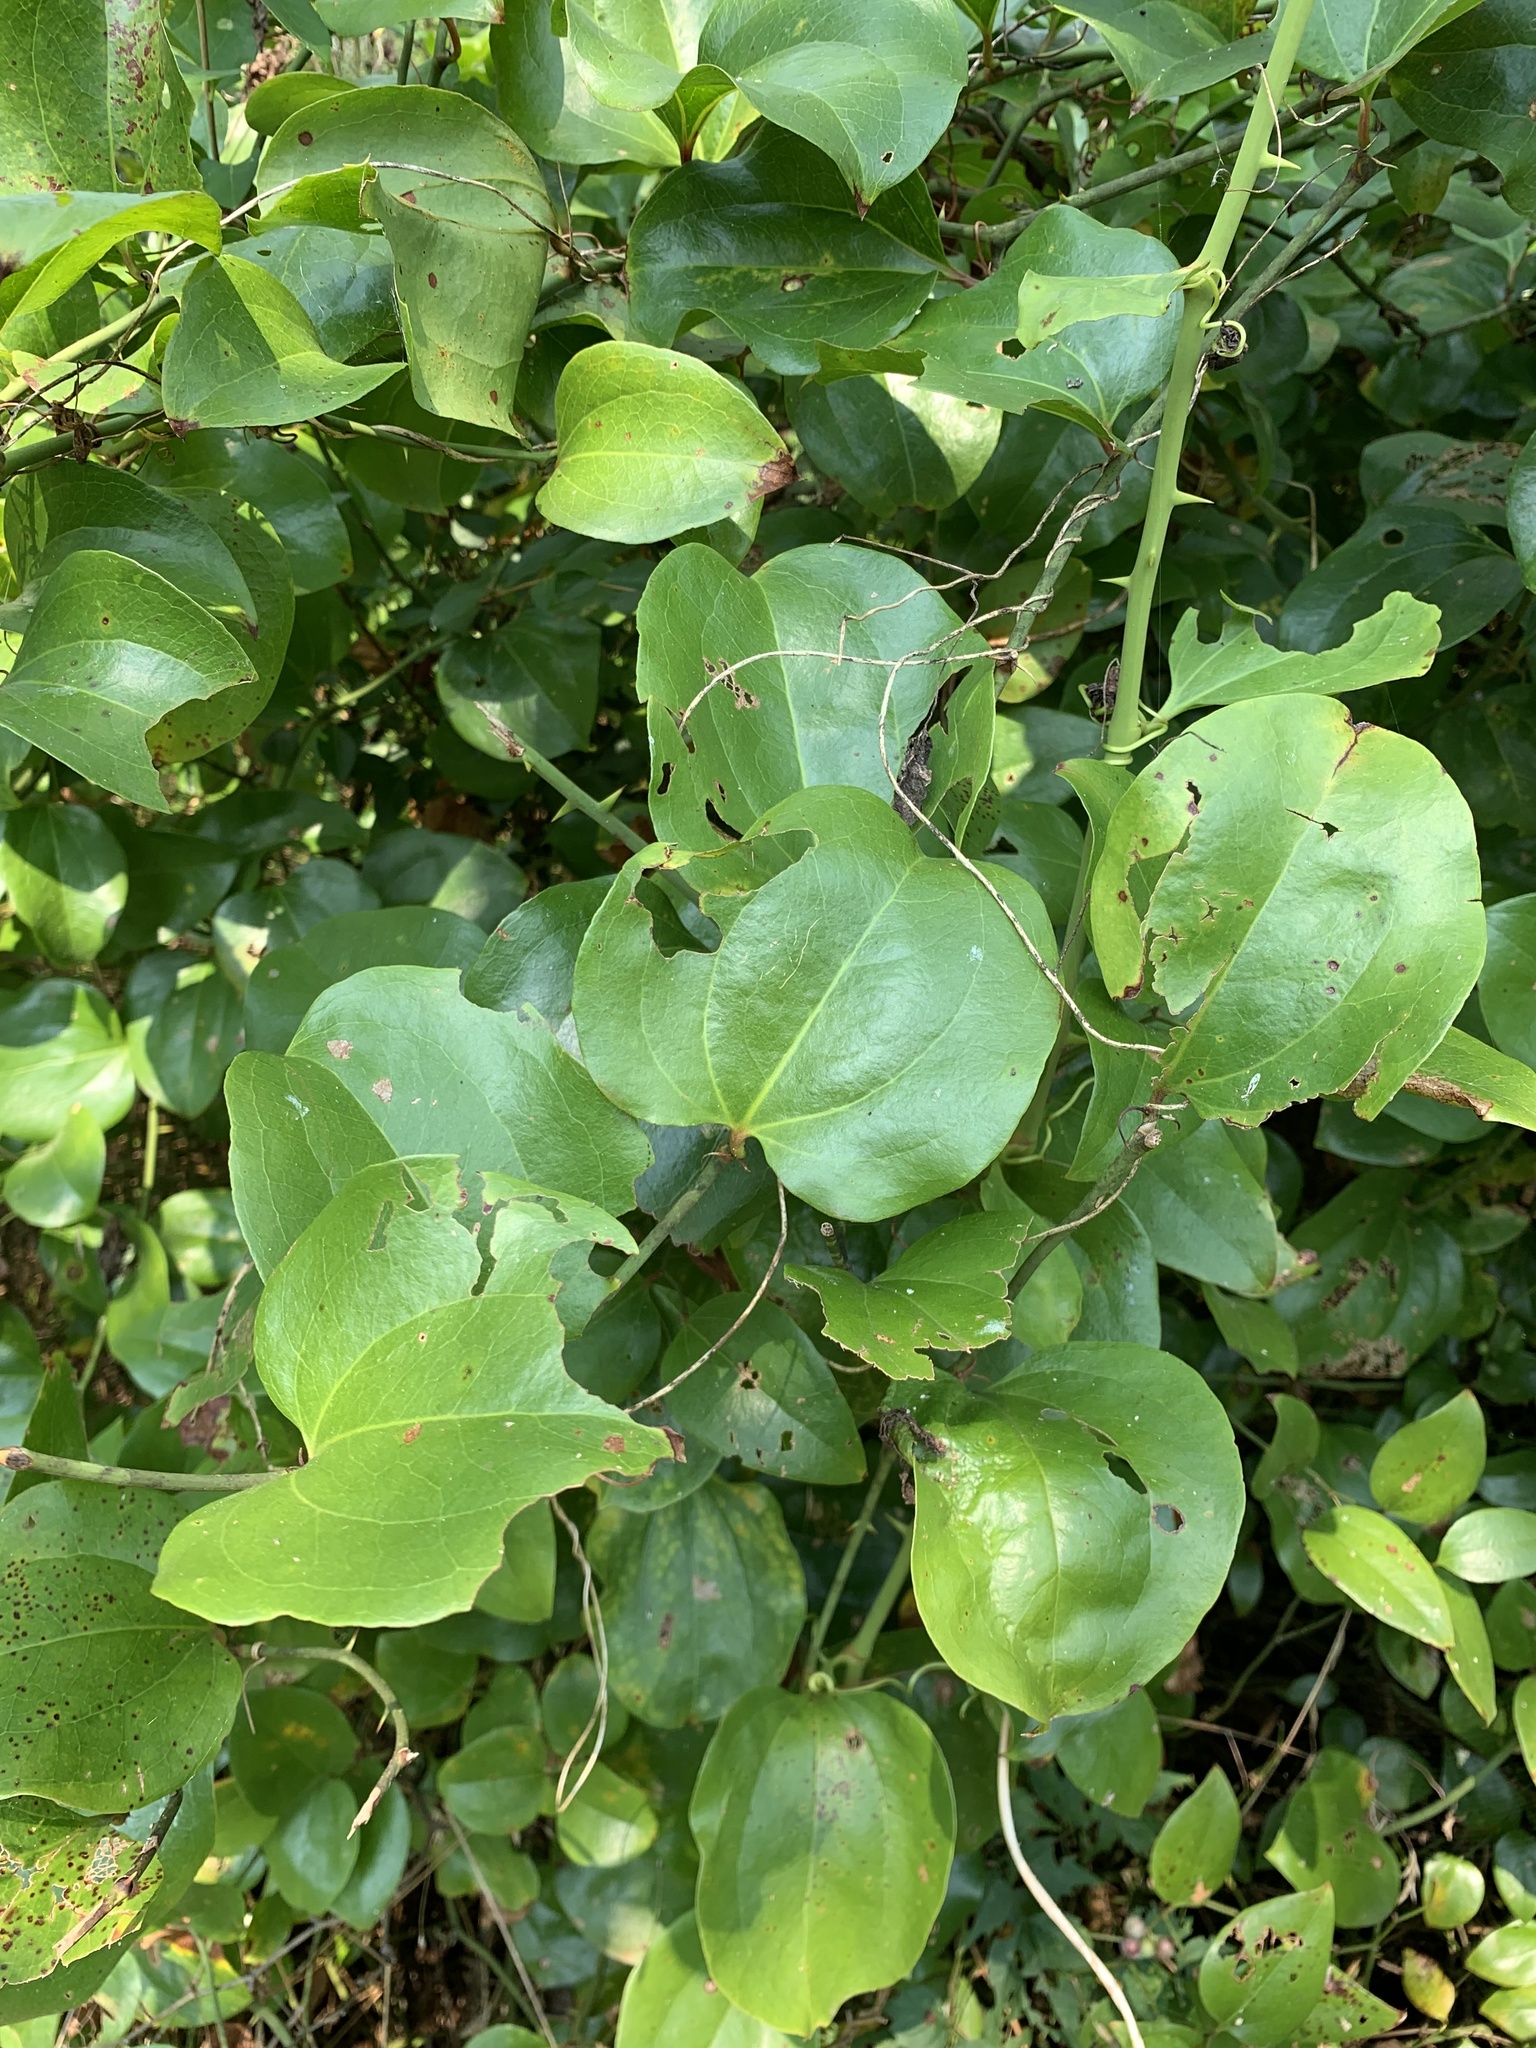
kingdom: Plantae
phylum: Tracheophyta
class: Liliopsida
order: Liliales
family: Smilacaceae
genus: Smilax
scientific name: Smilax rotundifolia
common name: Bullbriar
